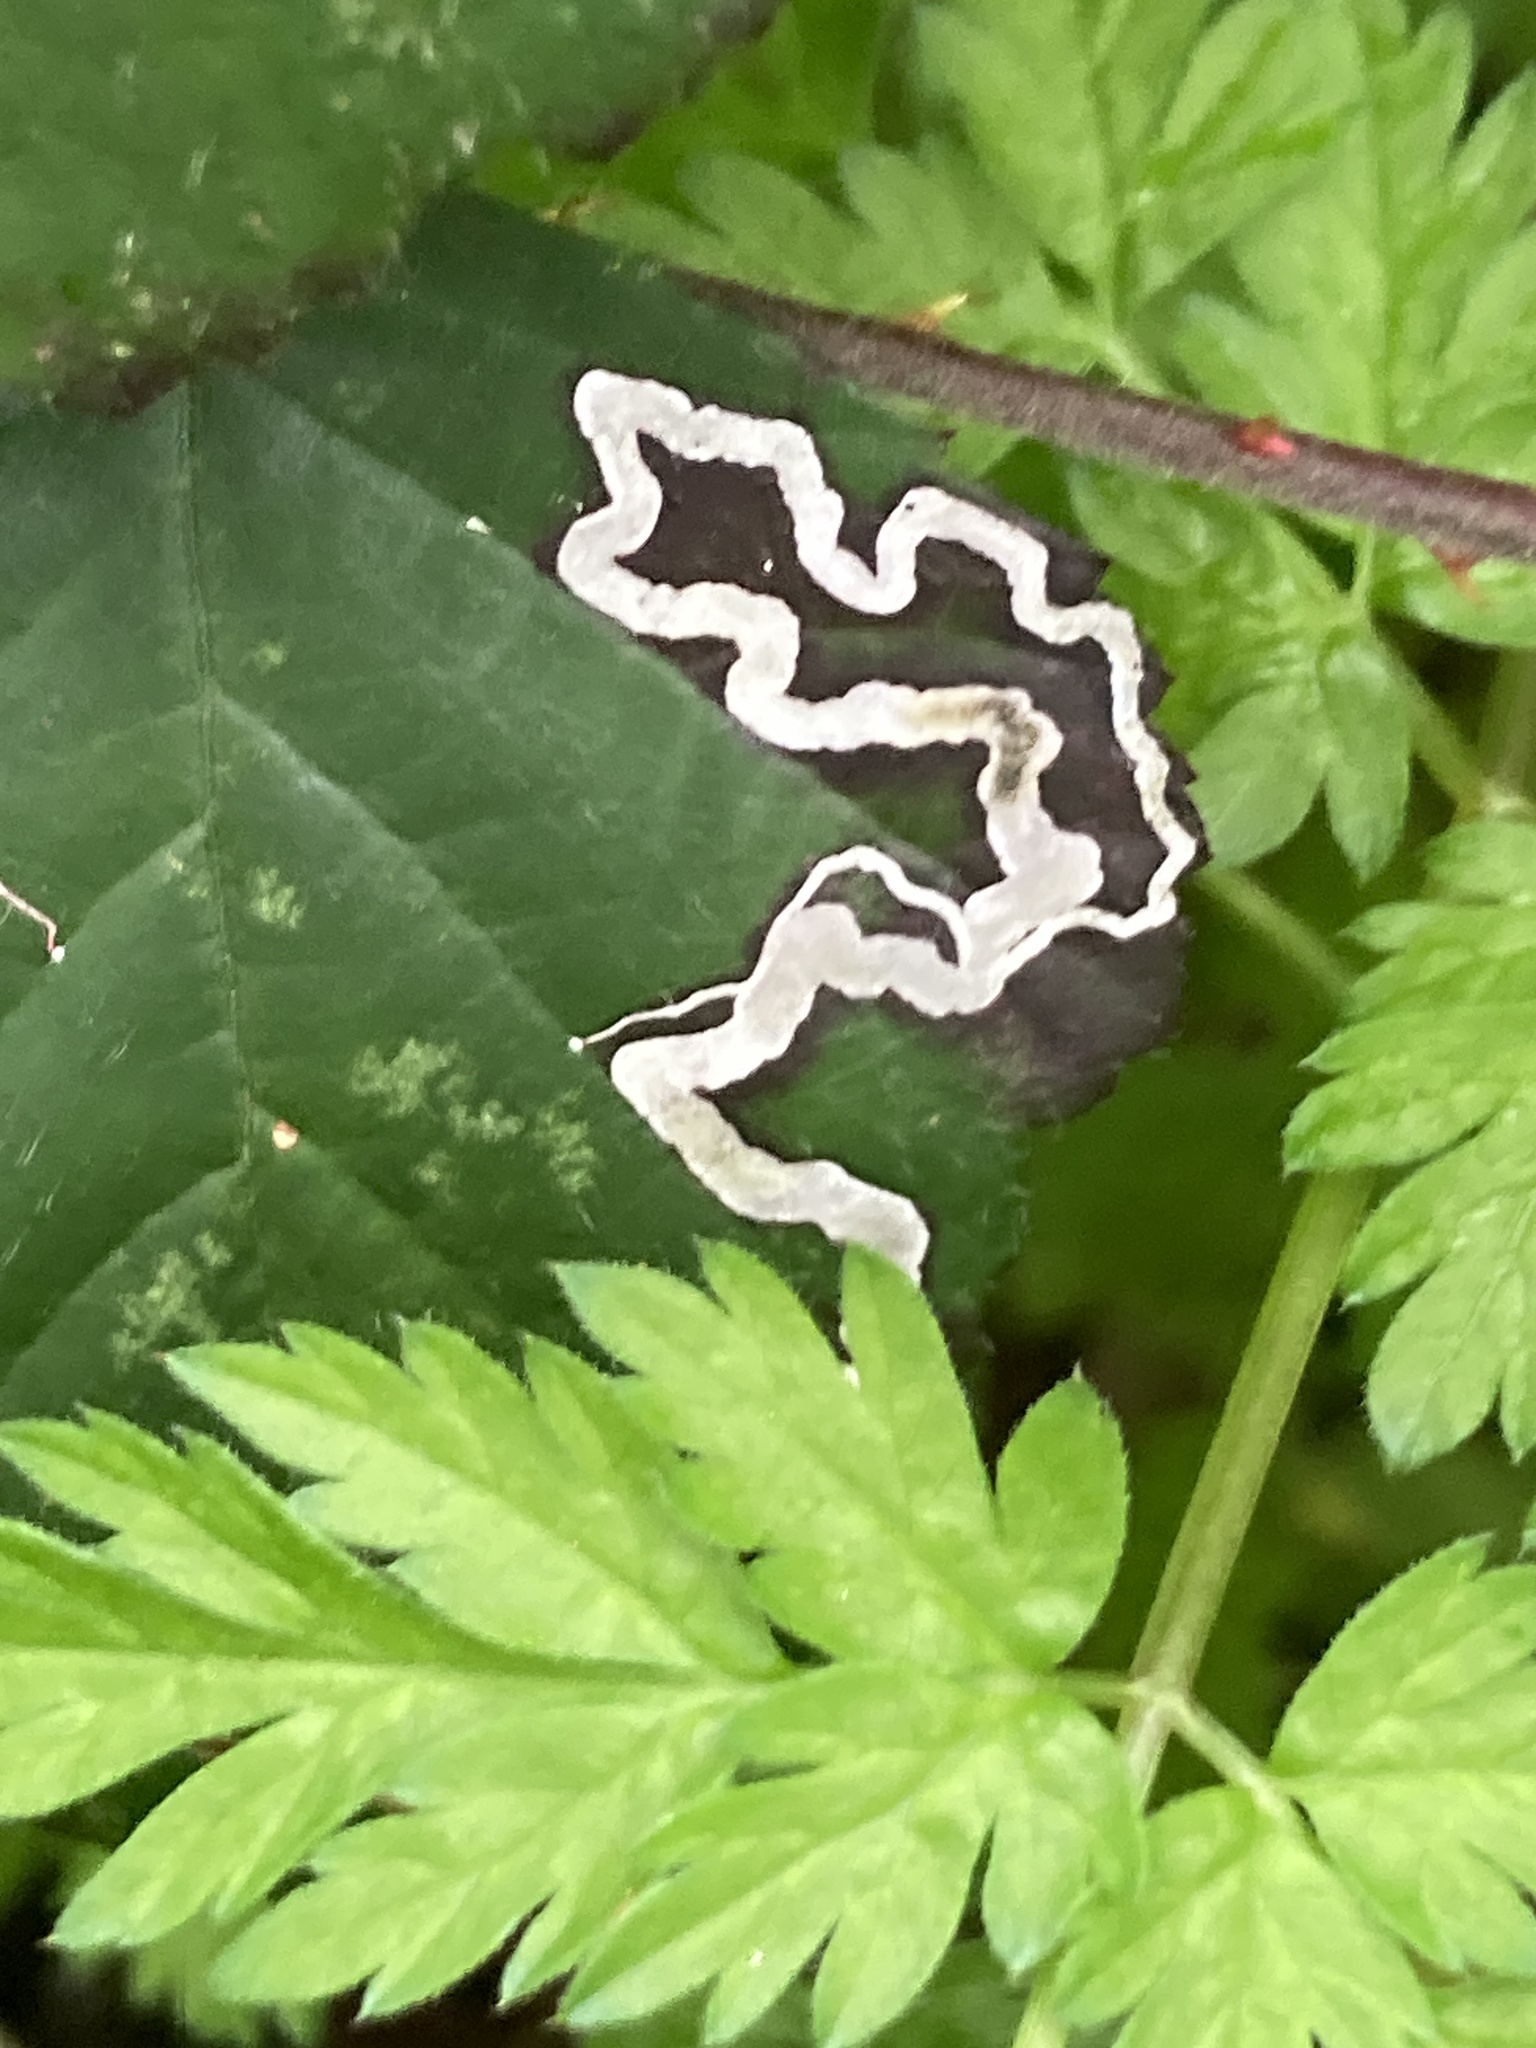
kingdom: Animalia
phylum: Arthropoda
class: Insecta
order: Lepidoptera
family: Nepticulidae
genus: Stigmella
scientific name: Stigmella aurella
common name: Golden pigmy
